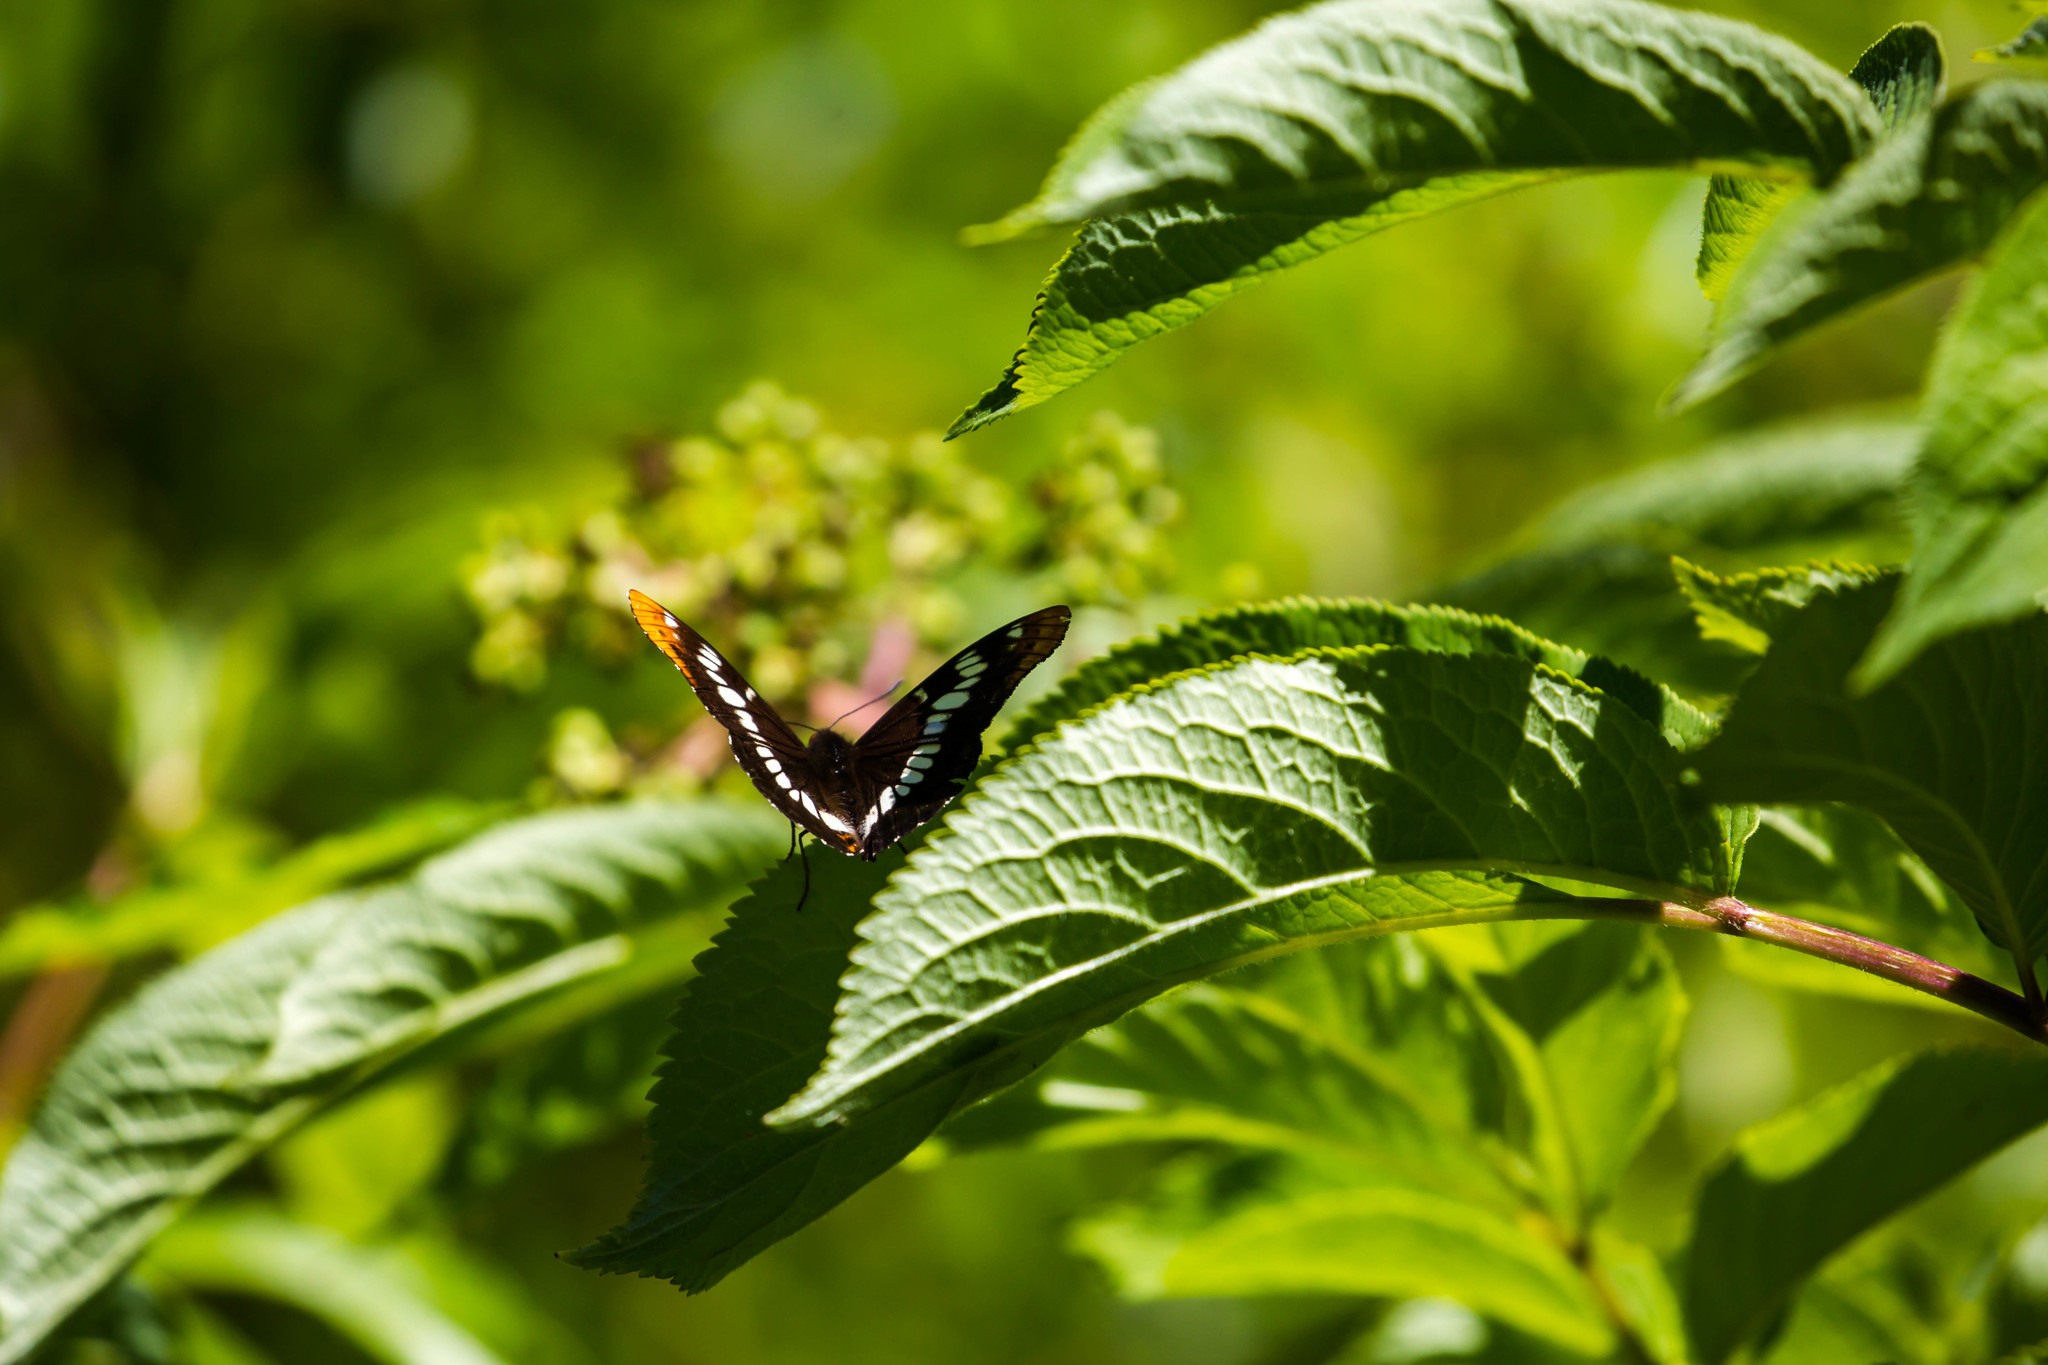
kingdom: Animalia
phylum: Arthropoda
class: Insecta
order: Lepidoptera
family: Nymphalidae
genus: Limenitis
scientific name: Limenitis lorquini
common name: Lorquin's admiral
